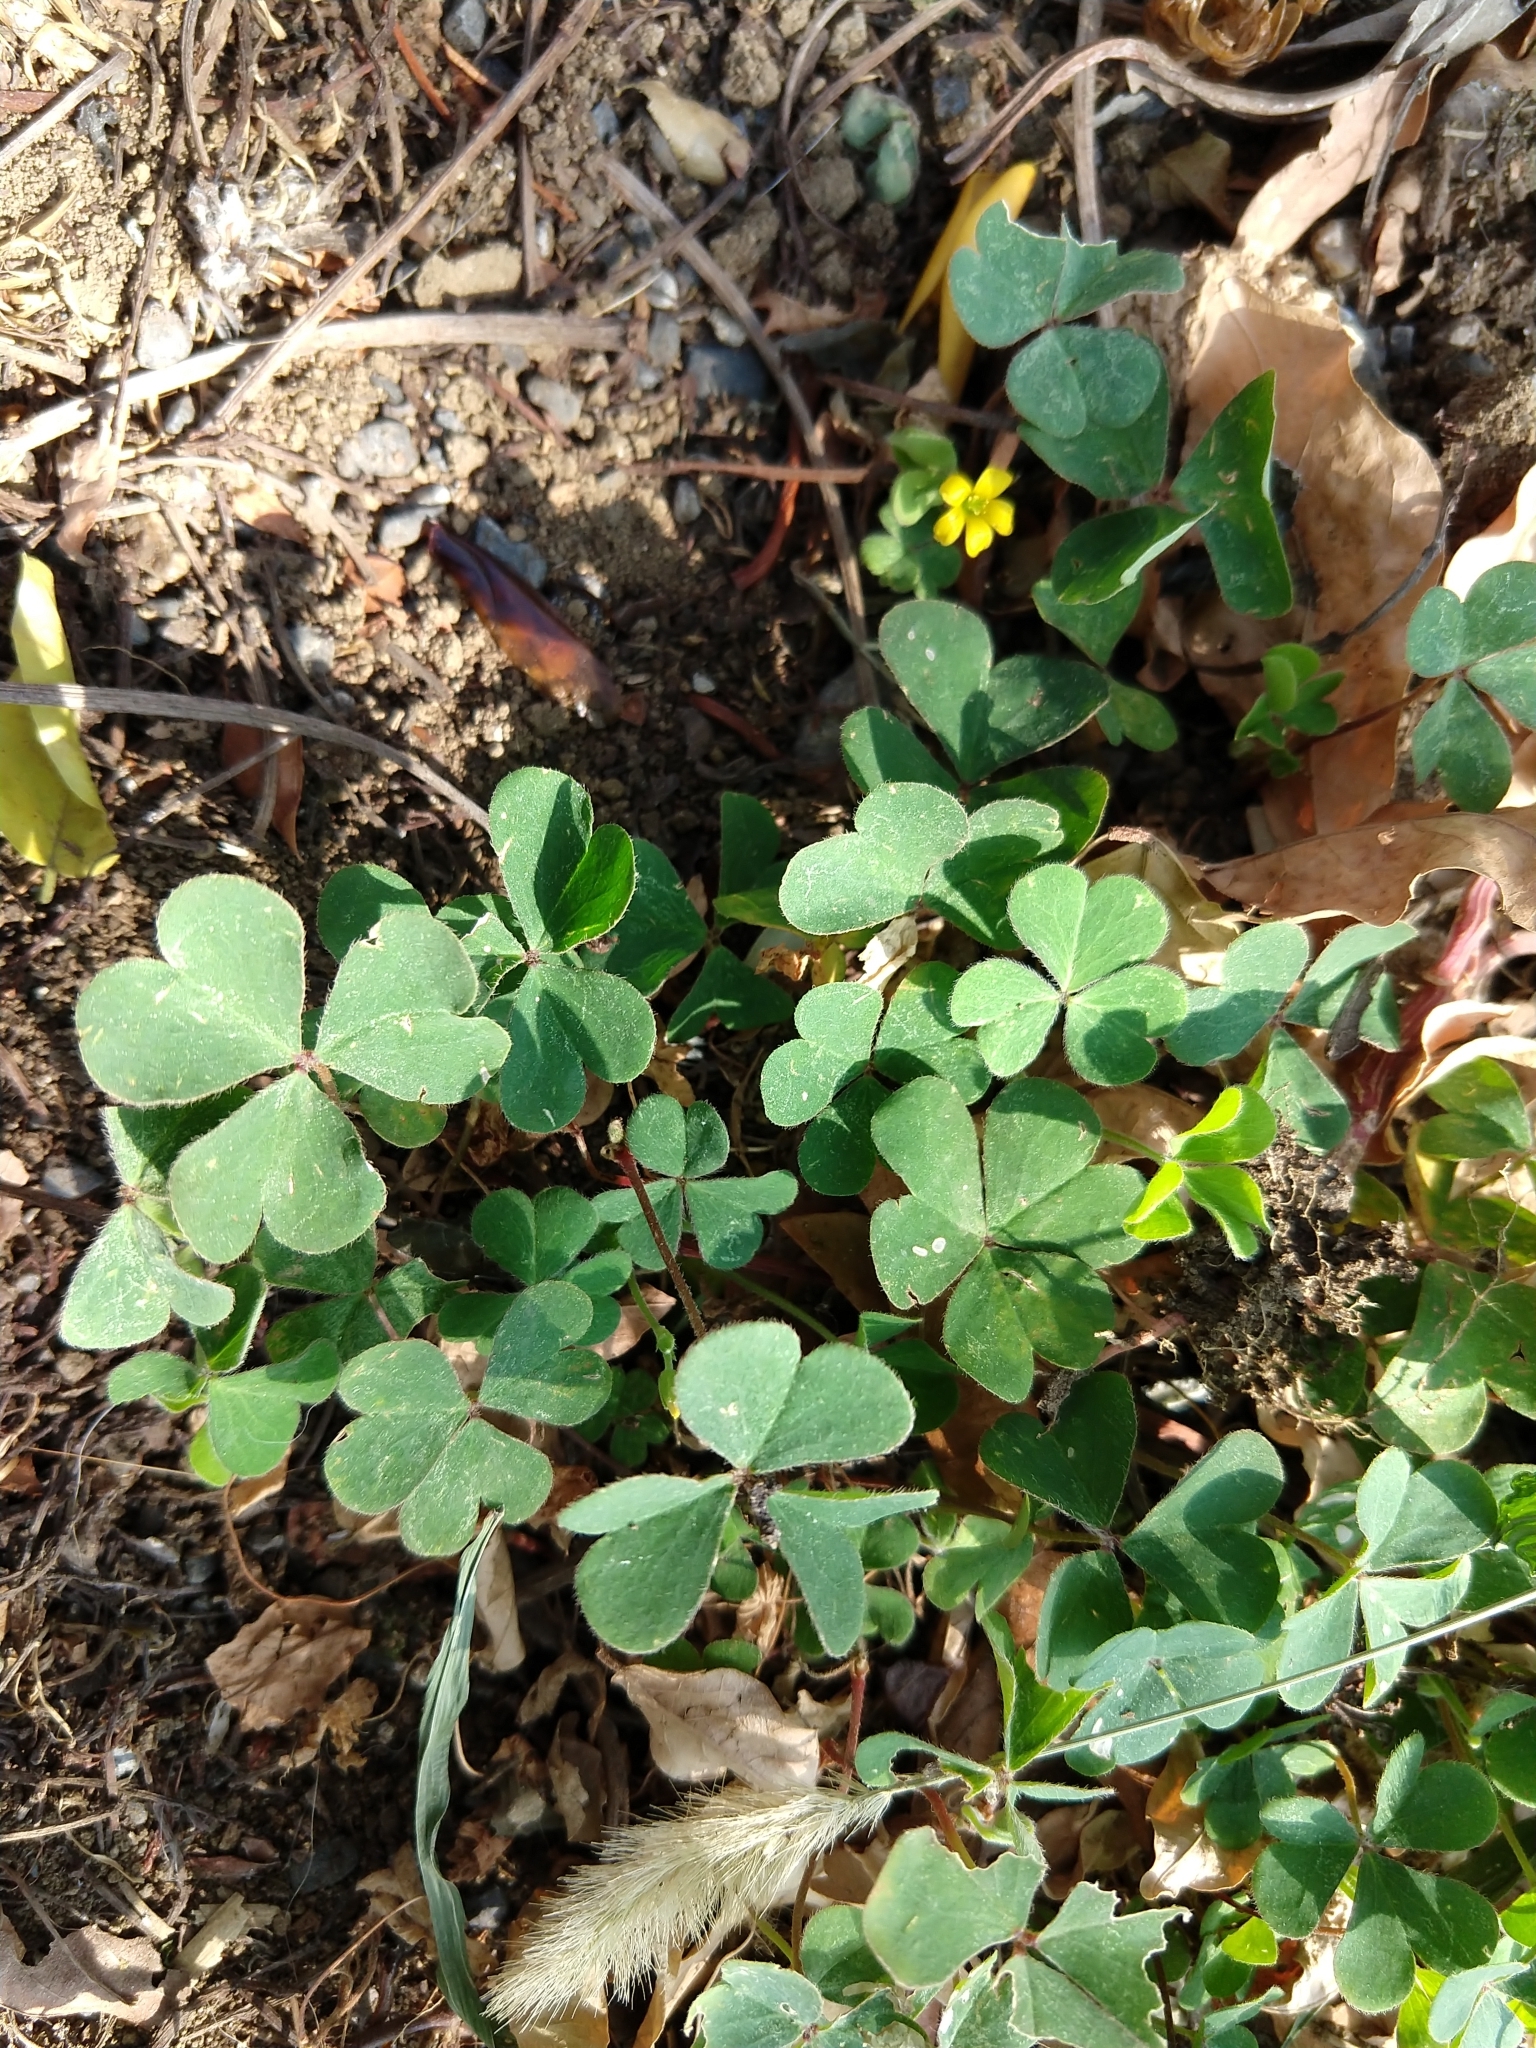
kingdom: Plantae
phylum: Tracheophyta
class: Magnoliopsida
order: Oxalidales
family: Oxalidaceae
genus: Oxalis
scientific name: Oxalis corniculata
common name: Procumbent yellow-sorrel
